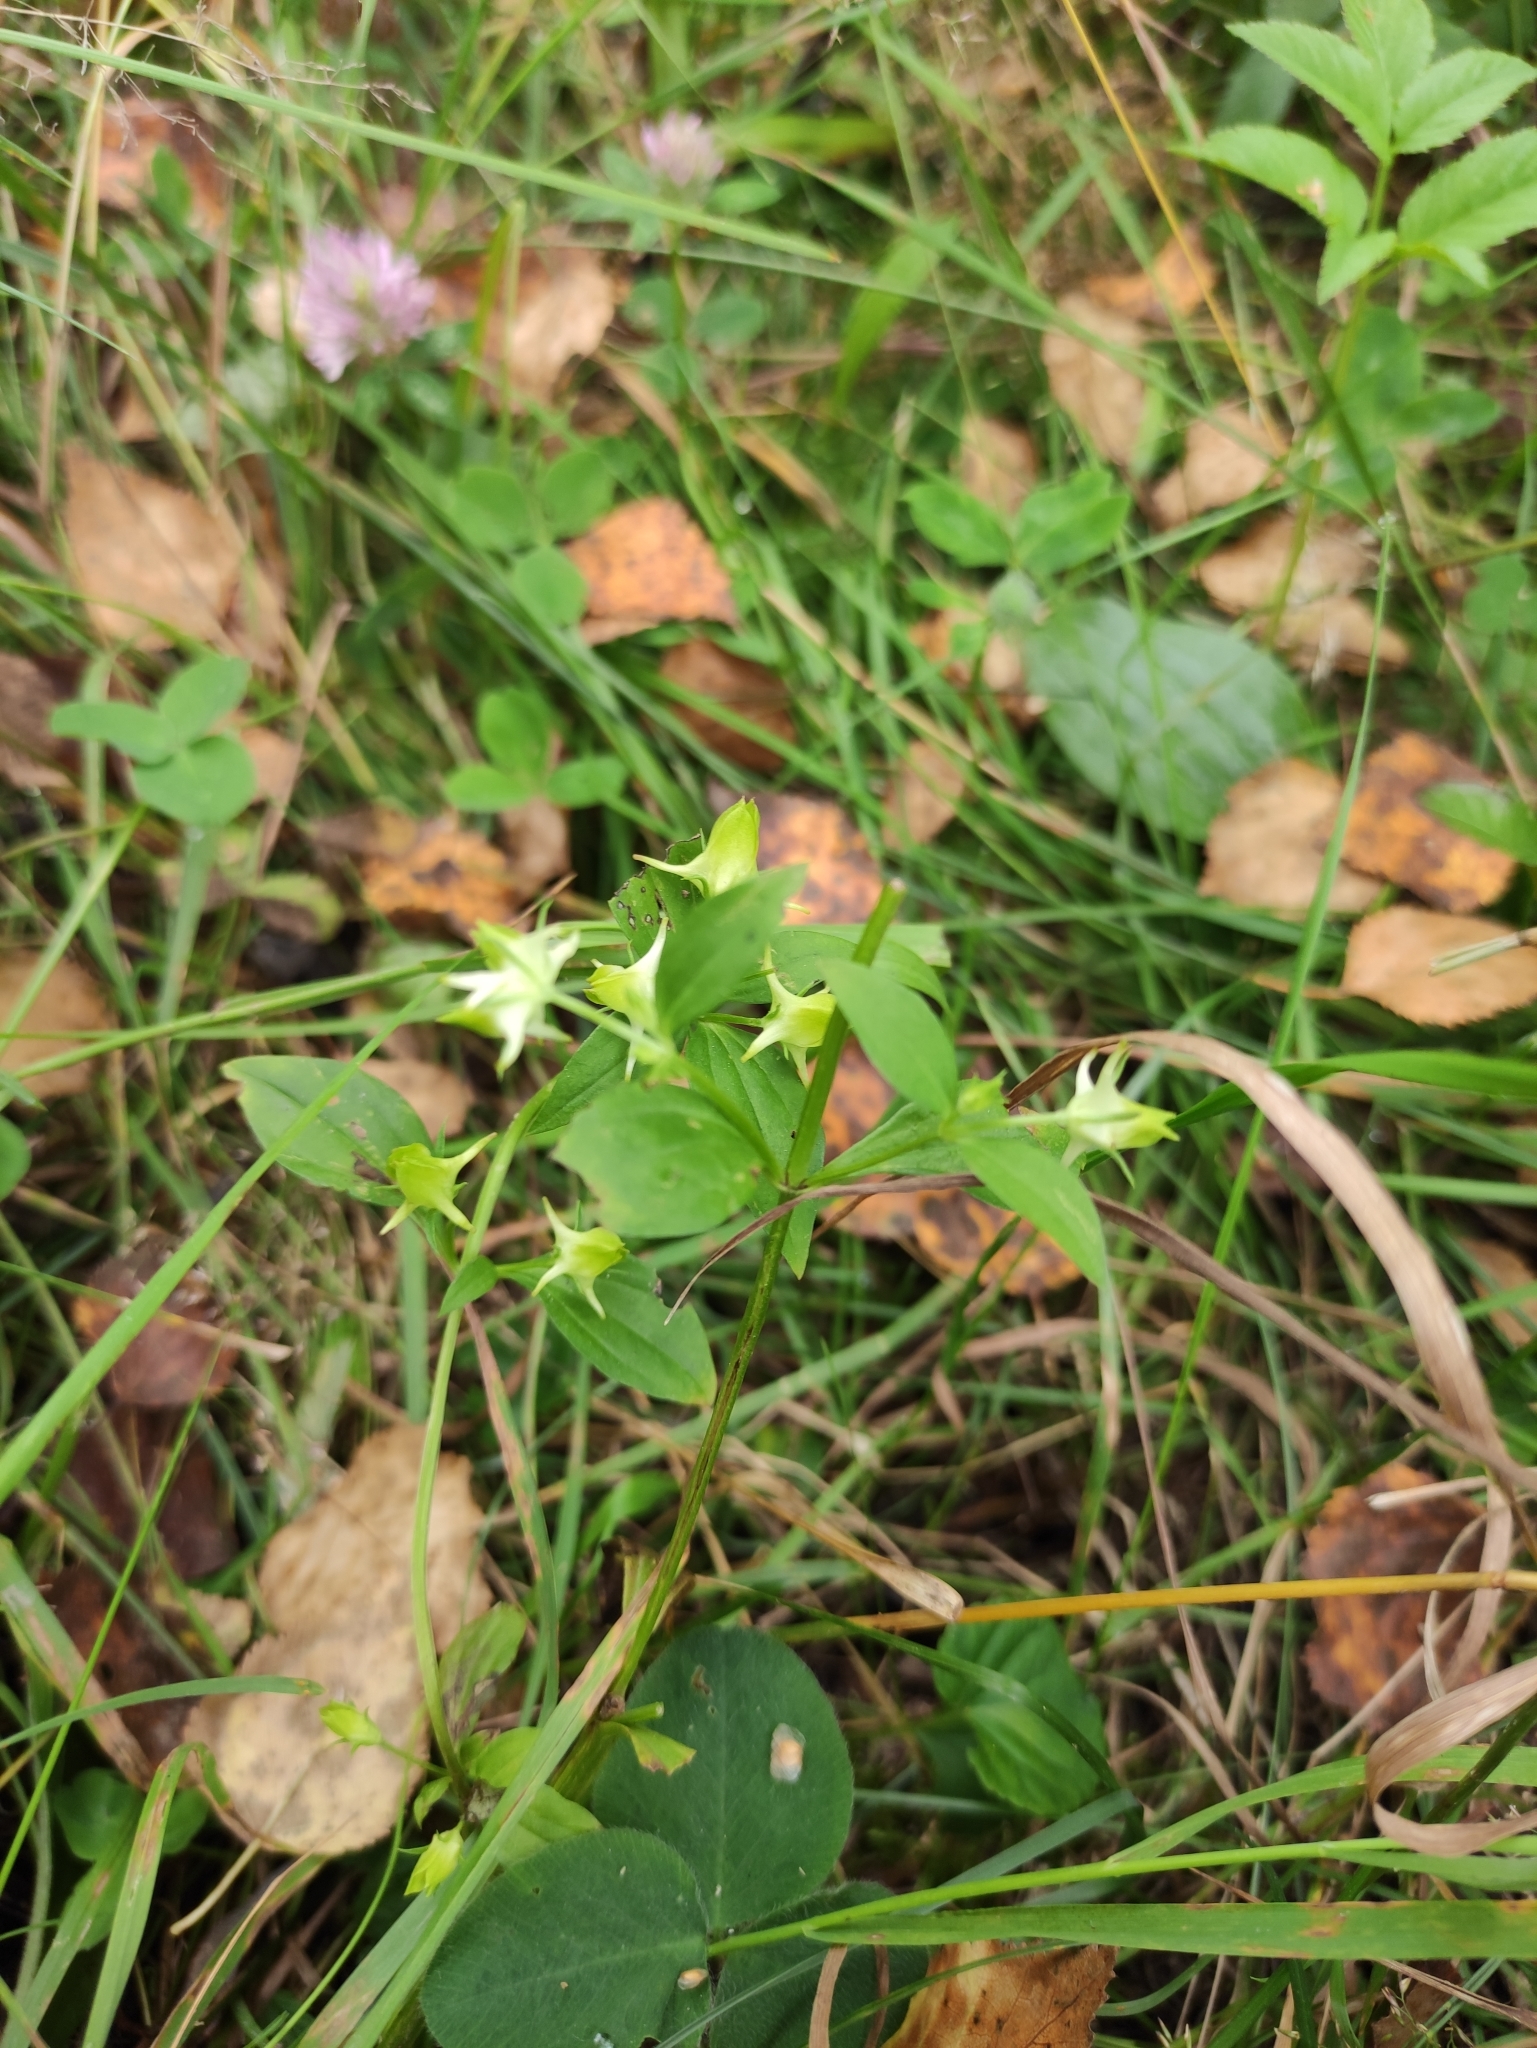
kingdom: Plantae
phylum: Tracheophyta
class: Magnoliopsida
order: Gentianales
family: Gentianaceae
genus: Halenia
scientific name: Halenia corniculata
